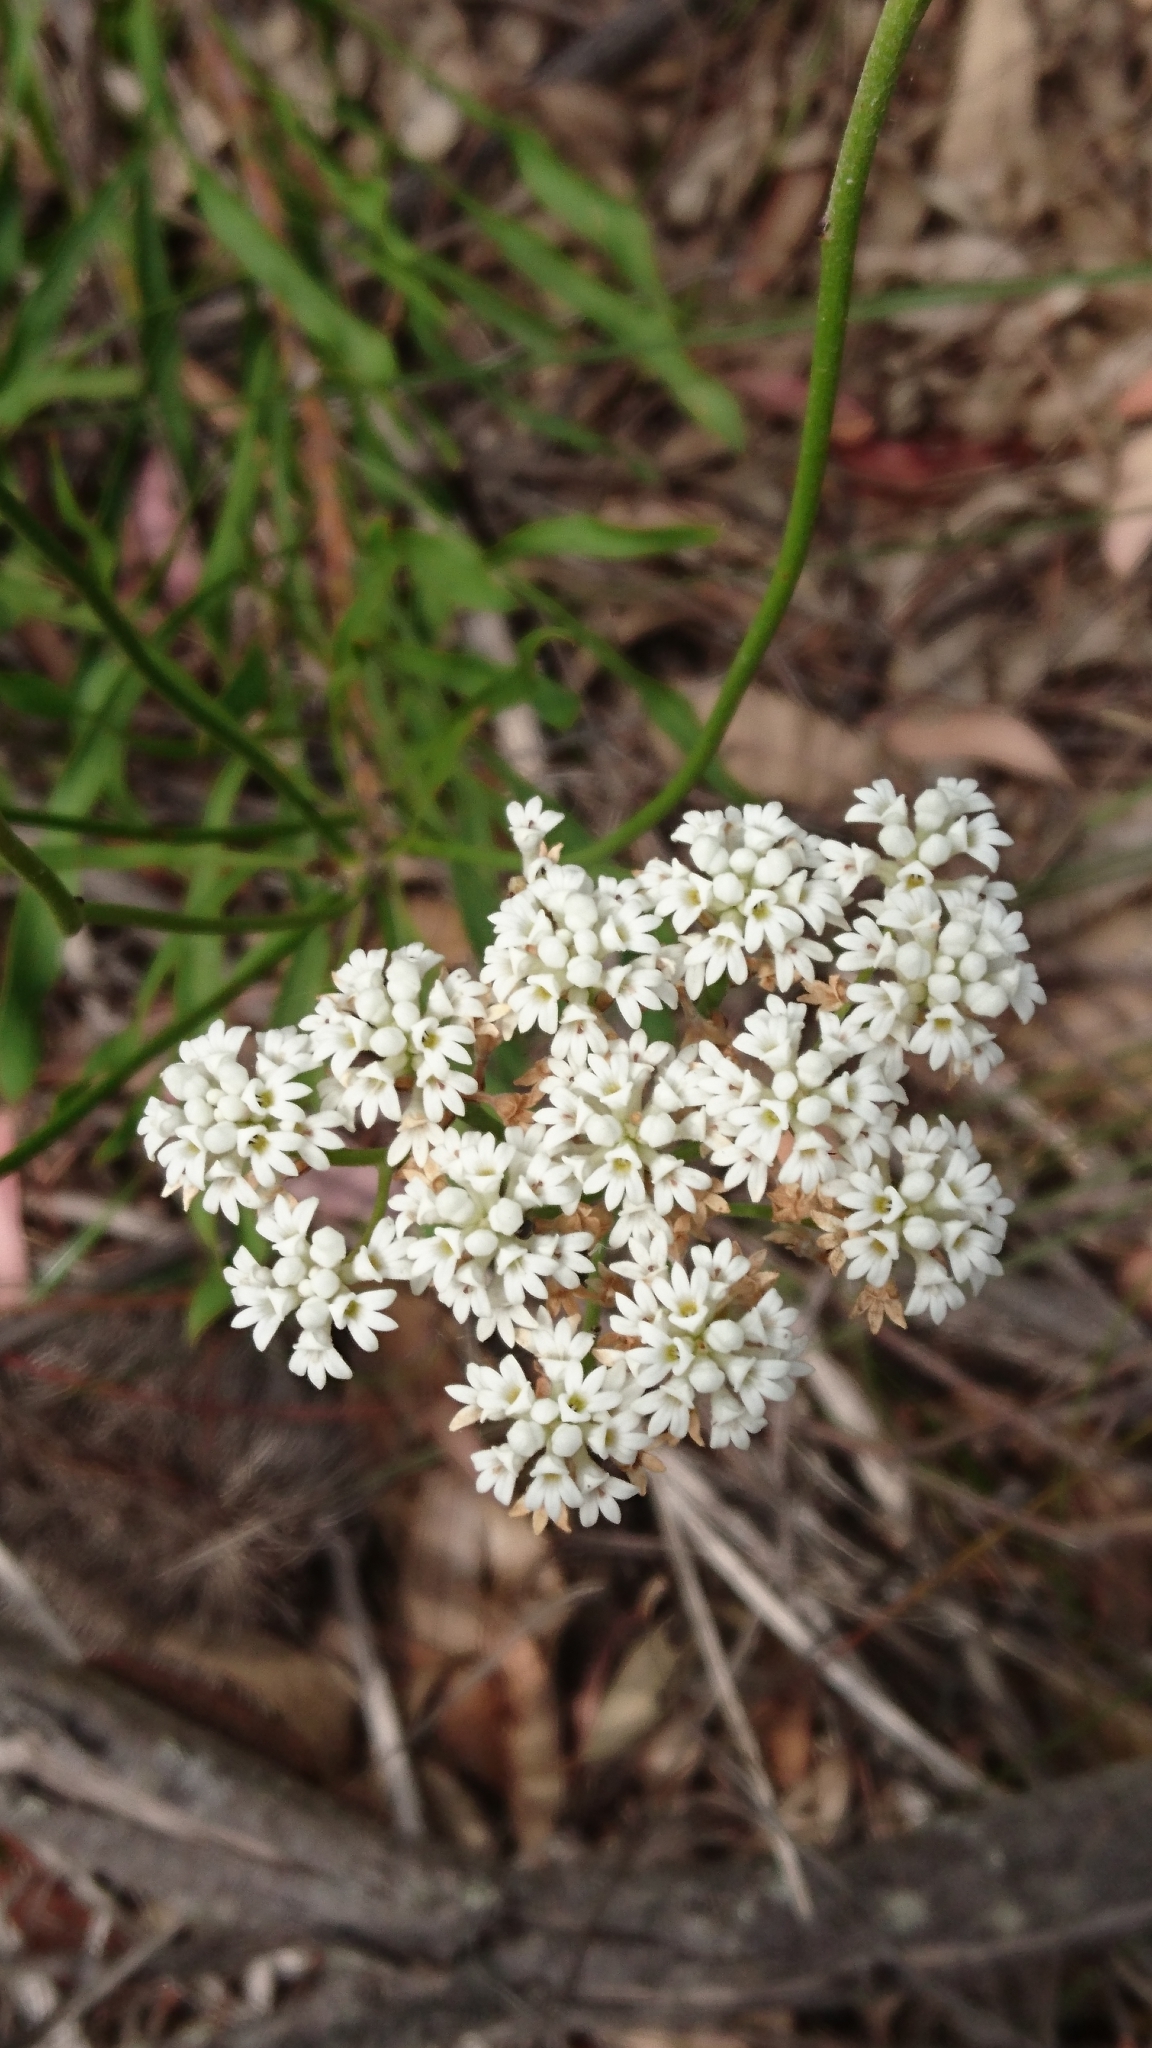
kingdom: Plantae
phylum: Tracheophyta
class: Magnoliopsida
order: Proteales
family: Proteaceae
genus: Conospermum
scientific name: Conospermum longifolium
